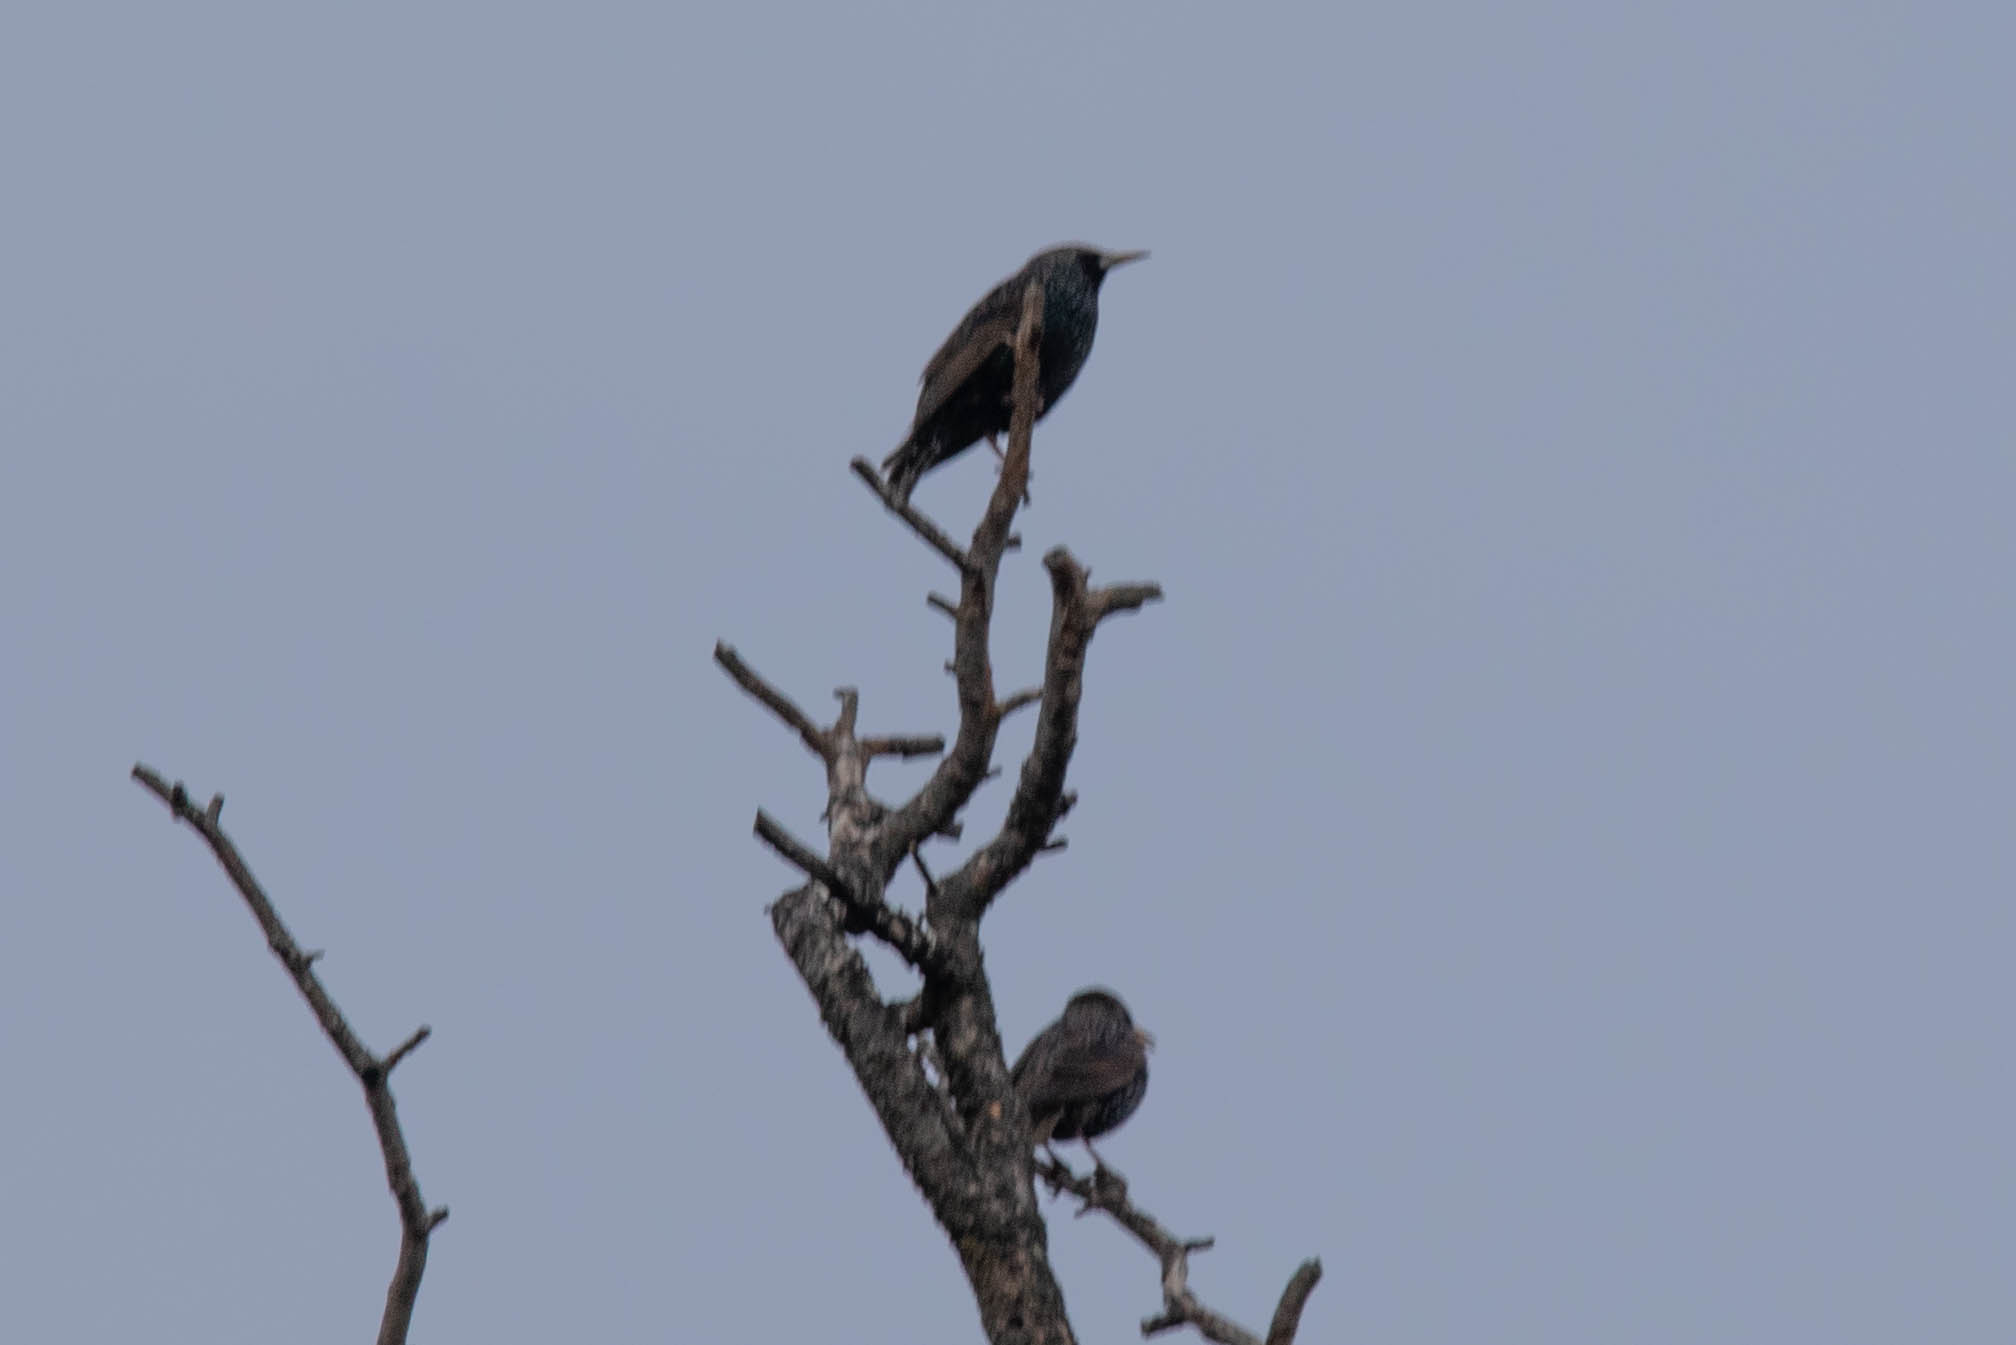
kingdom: Animalia
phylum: Chordata
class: Aves
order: Passeriformes
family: Sturnidae
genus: Sturnus
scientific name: Sturnus vulgaris
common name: Common starling
